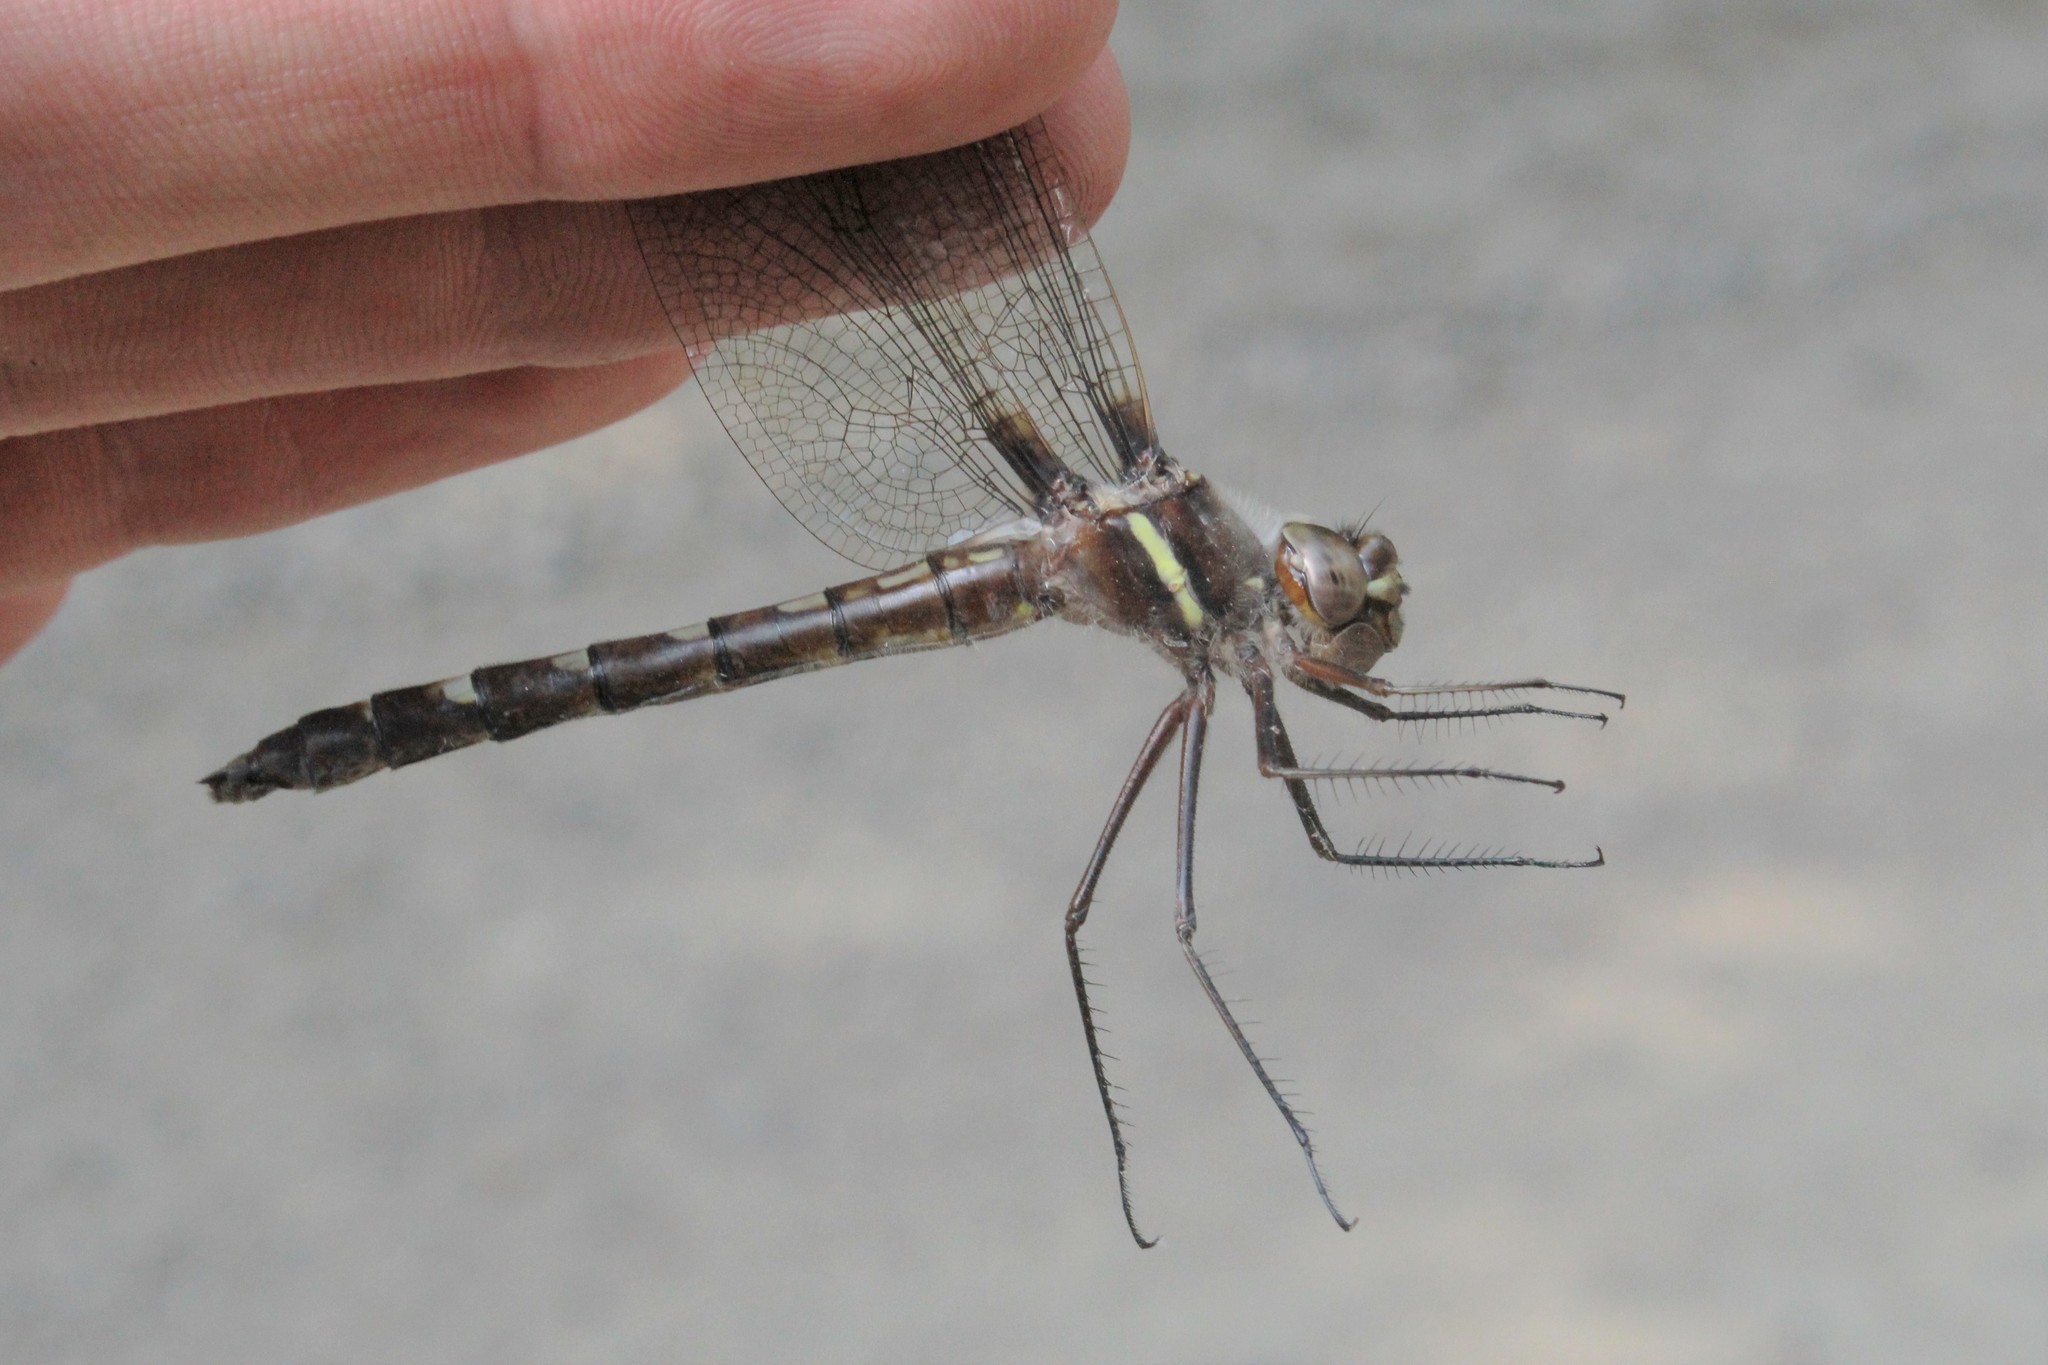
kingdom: Animalia
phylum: Arthropoda
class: Insecta
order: Odonata
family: Macromiidae
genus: Didymops
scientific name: Didymops transversa
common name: Stream cruiser
